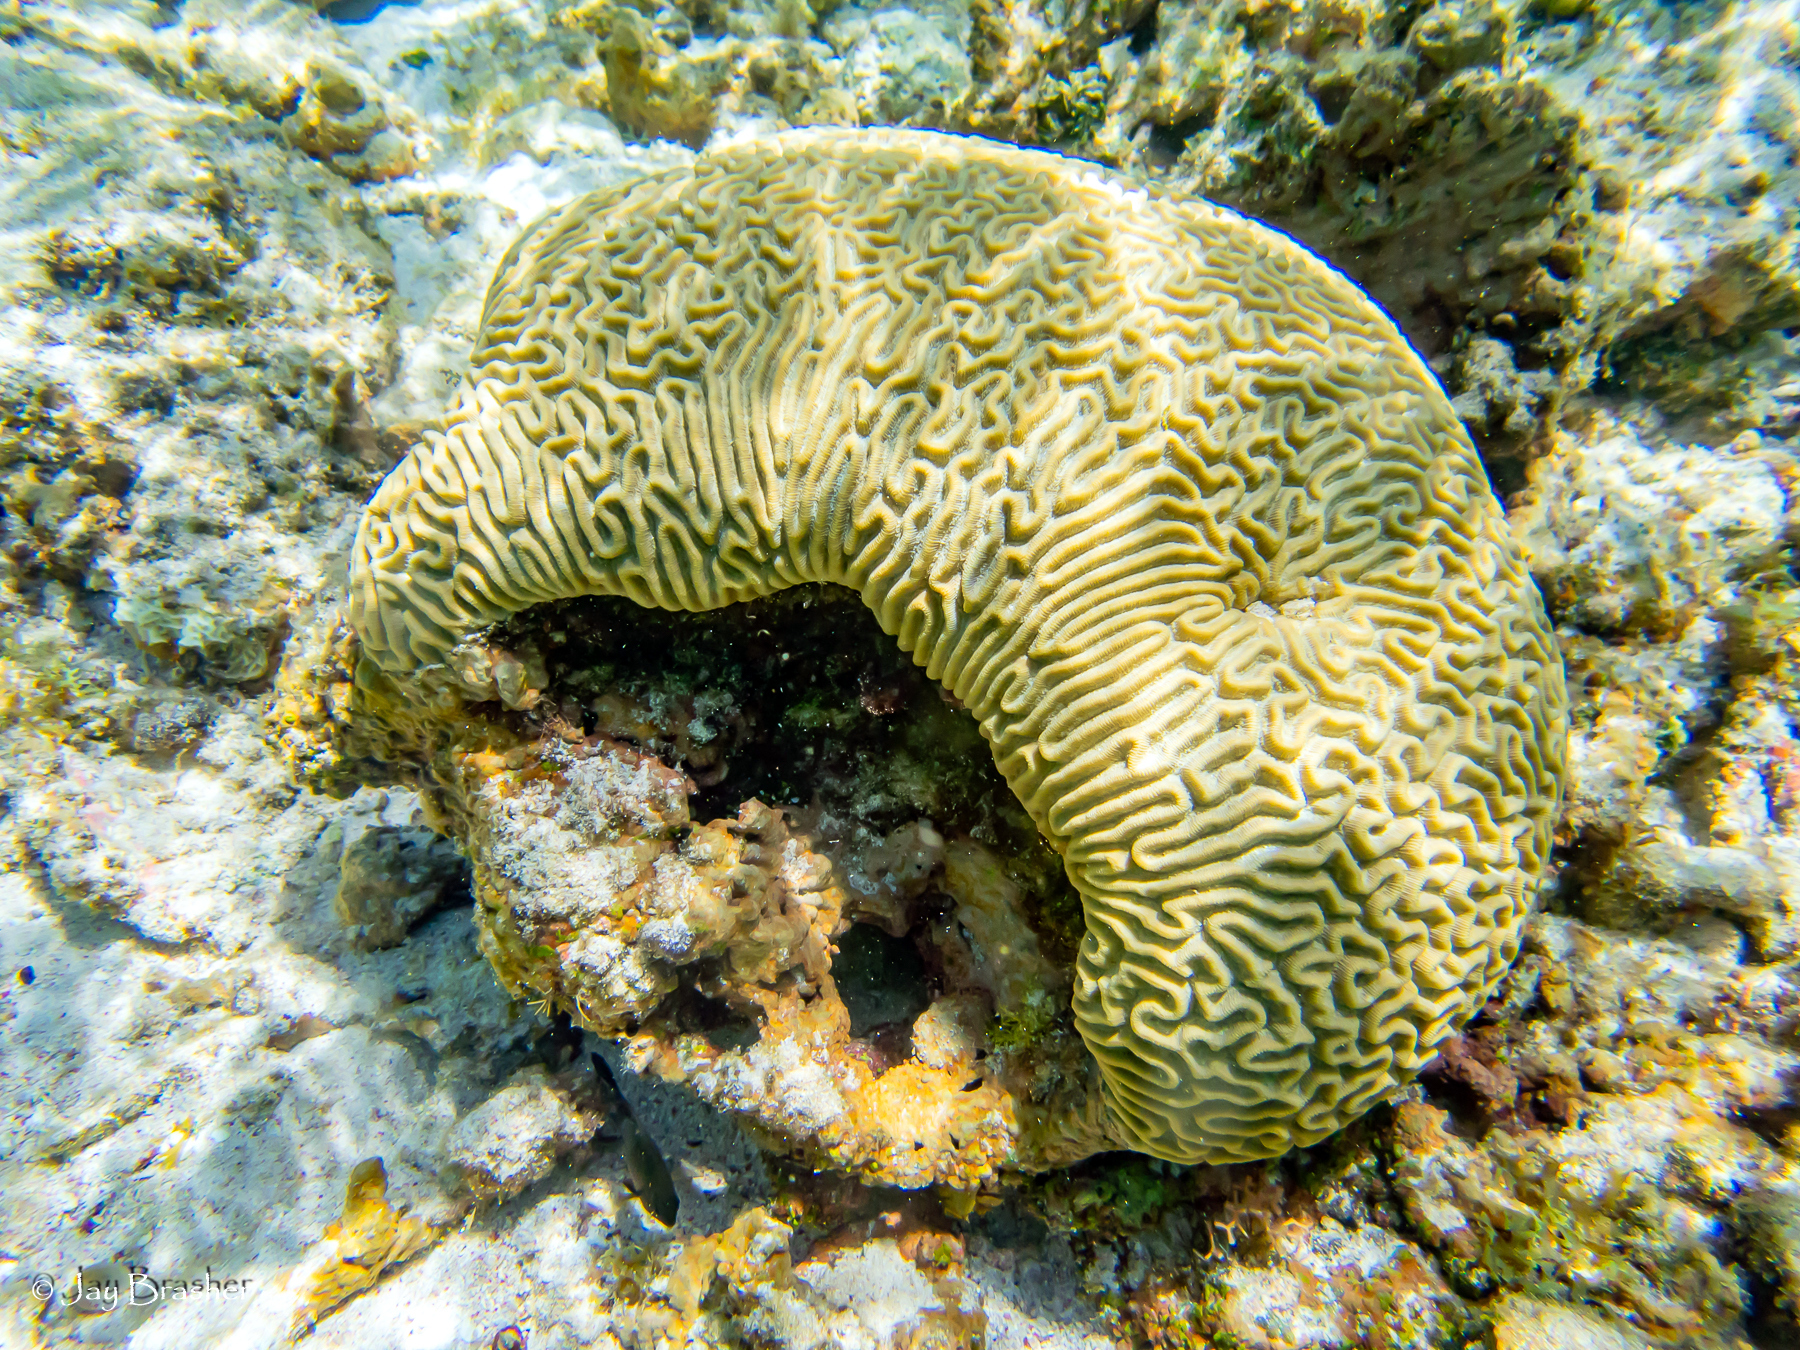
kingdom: Animalia
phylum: Cnidaria
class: Anthozoa
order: Scleractinia
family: Faviidae
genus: Pseudodiploria
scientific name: Pseudodiploria strigosa
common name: Symmetrical brain coral
